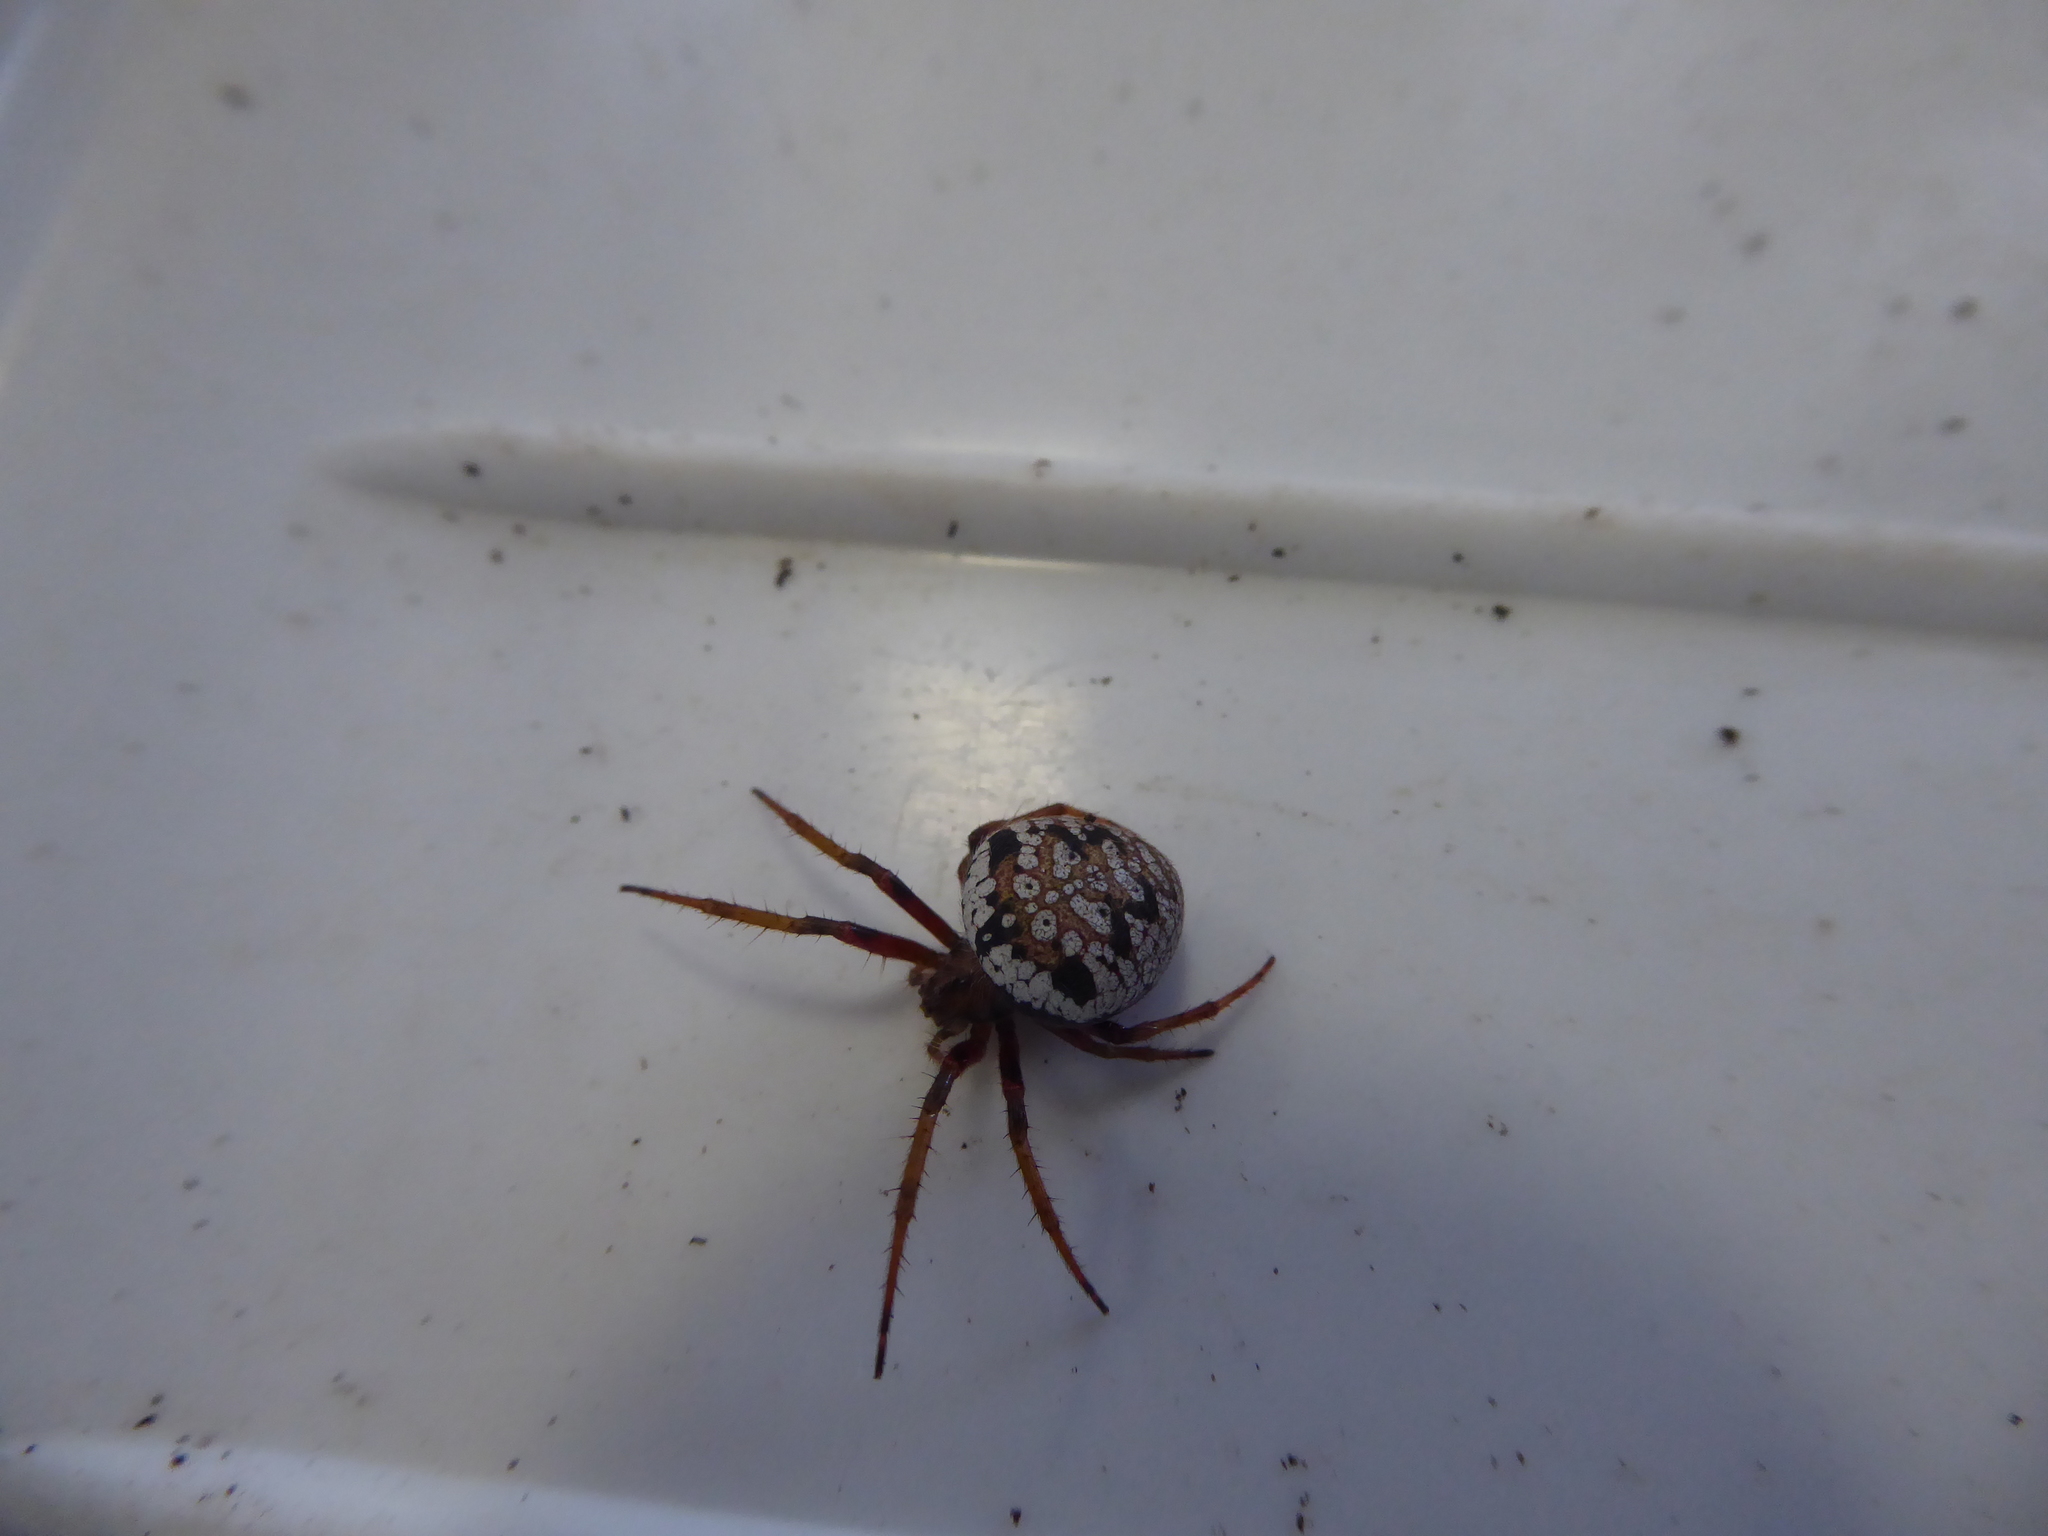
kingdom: Animalia
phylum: Arthropoda
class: Arachnida
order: Araneae
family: Araneidae
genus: Zealaranea
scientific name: Zealaranea prina
